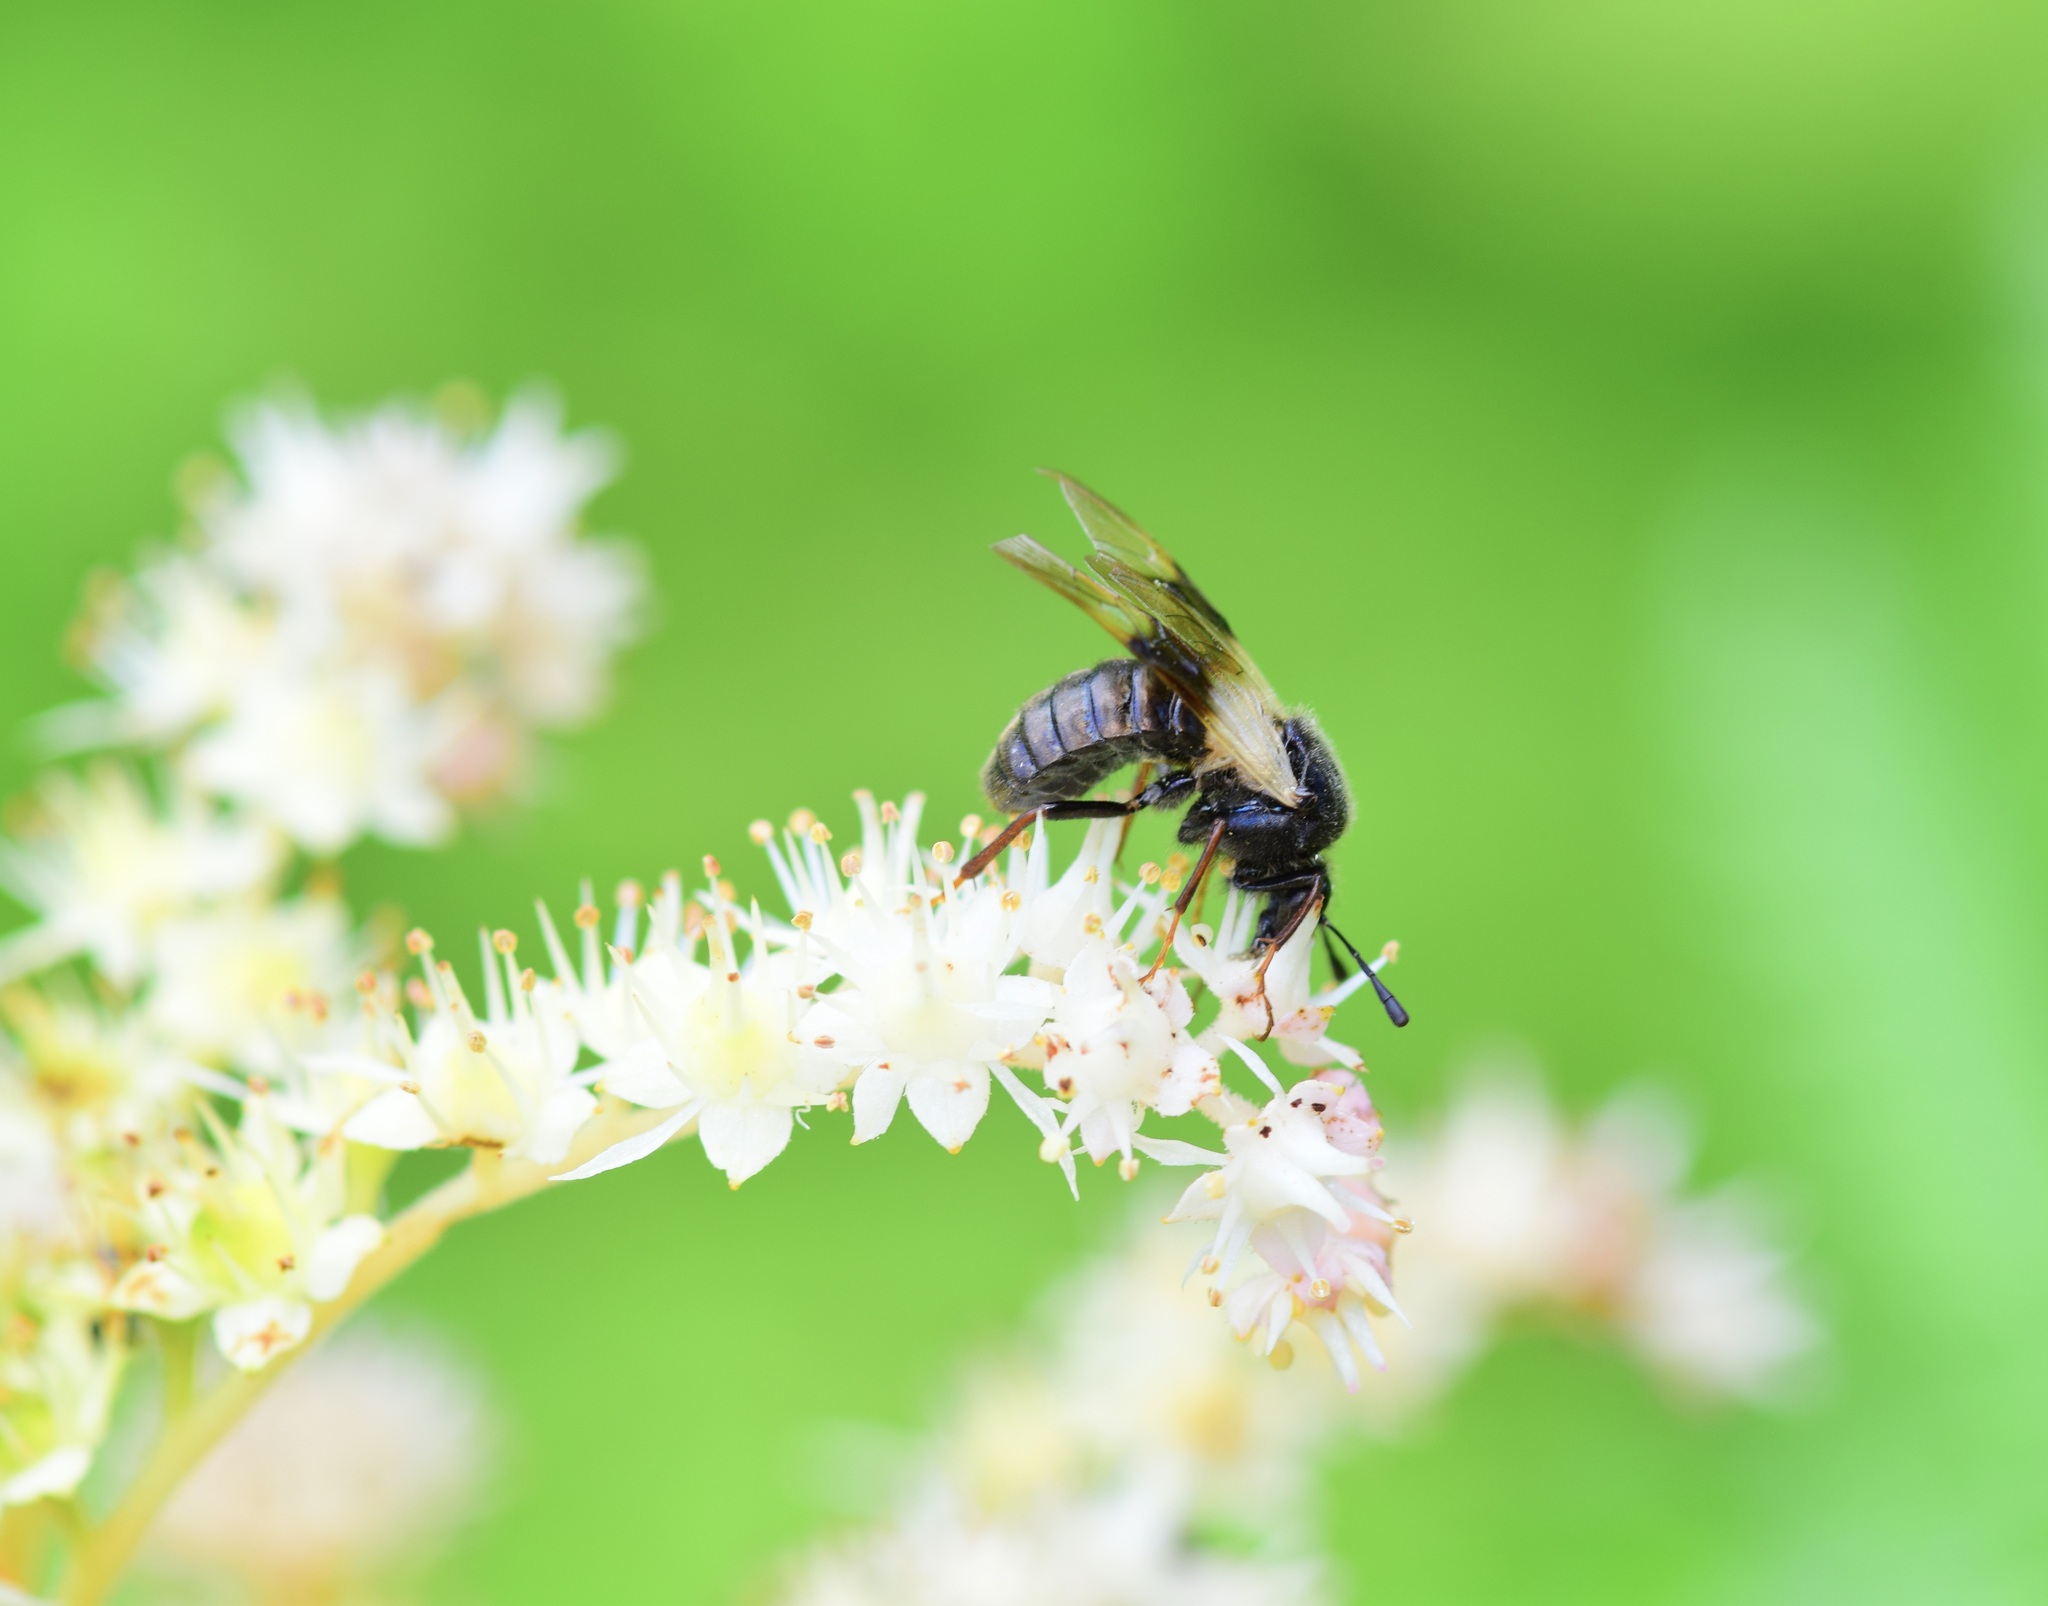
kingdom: Animalia
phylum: Arthropoda
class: Insecta
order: Hymenoptera
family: Cimbicidae
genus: Abia
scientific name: Abia fasciata
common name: Banded honeysuckle sawfly
